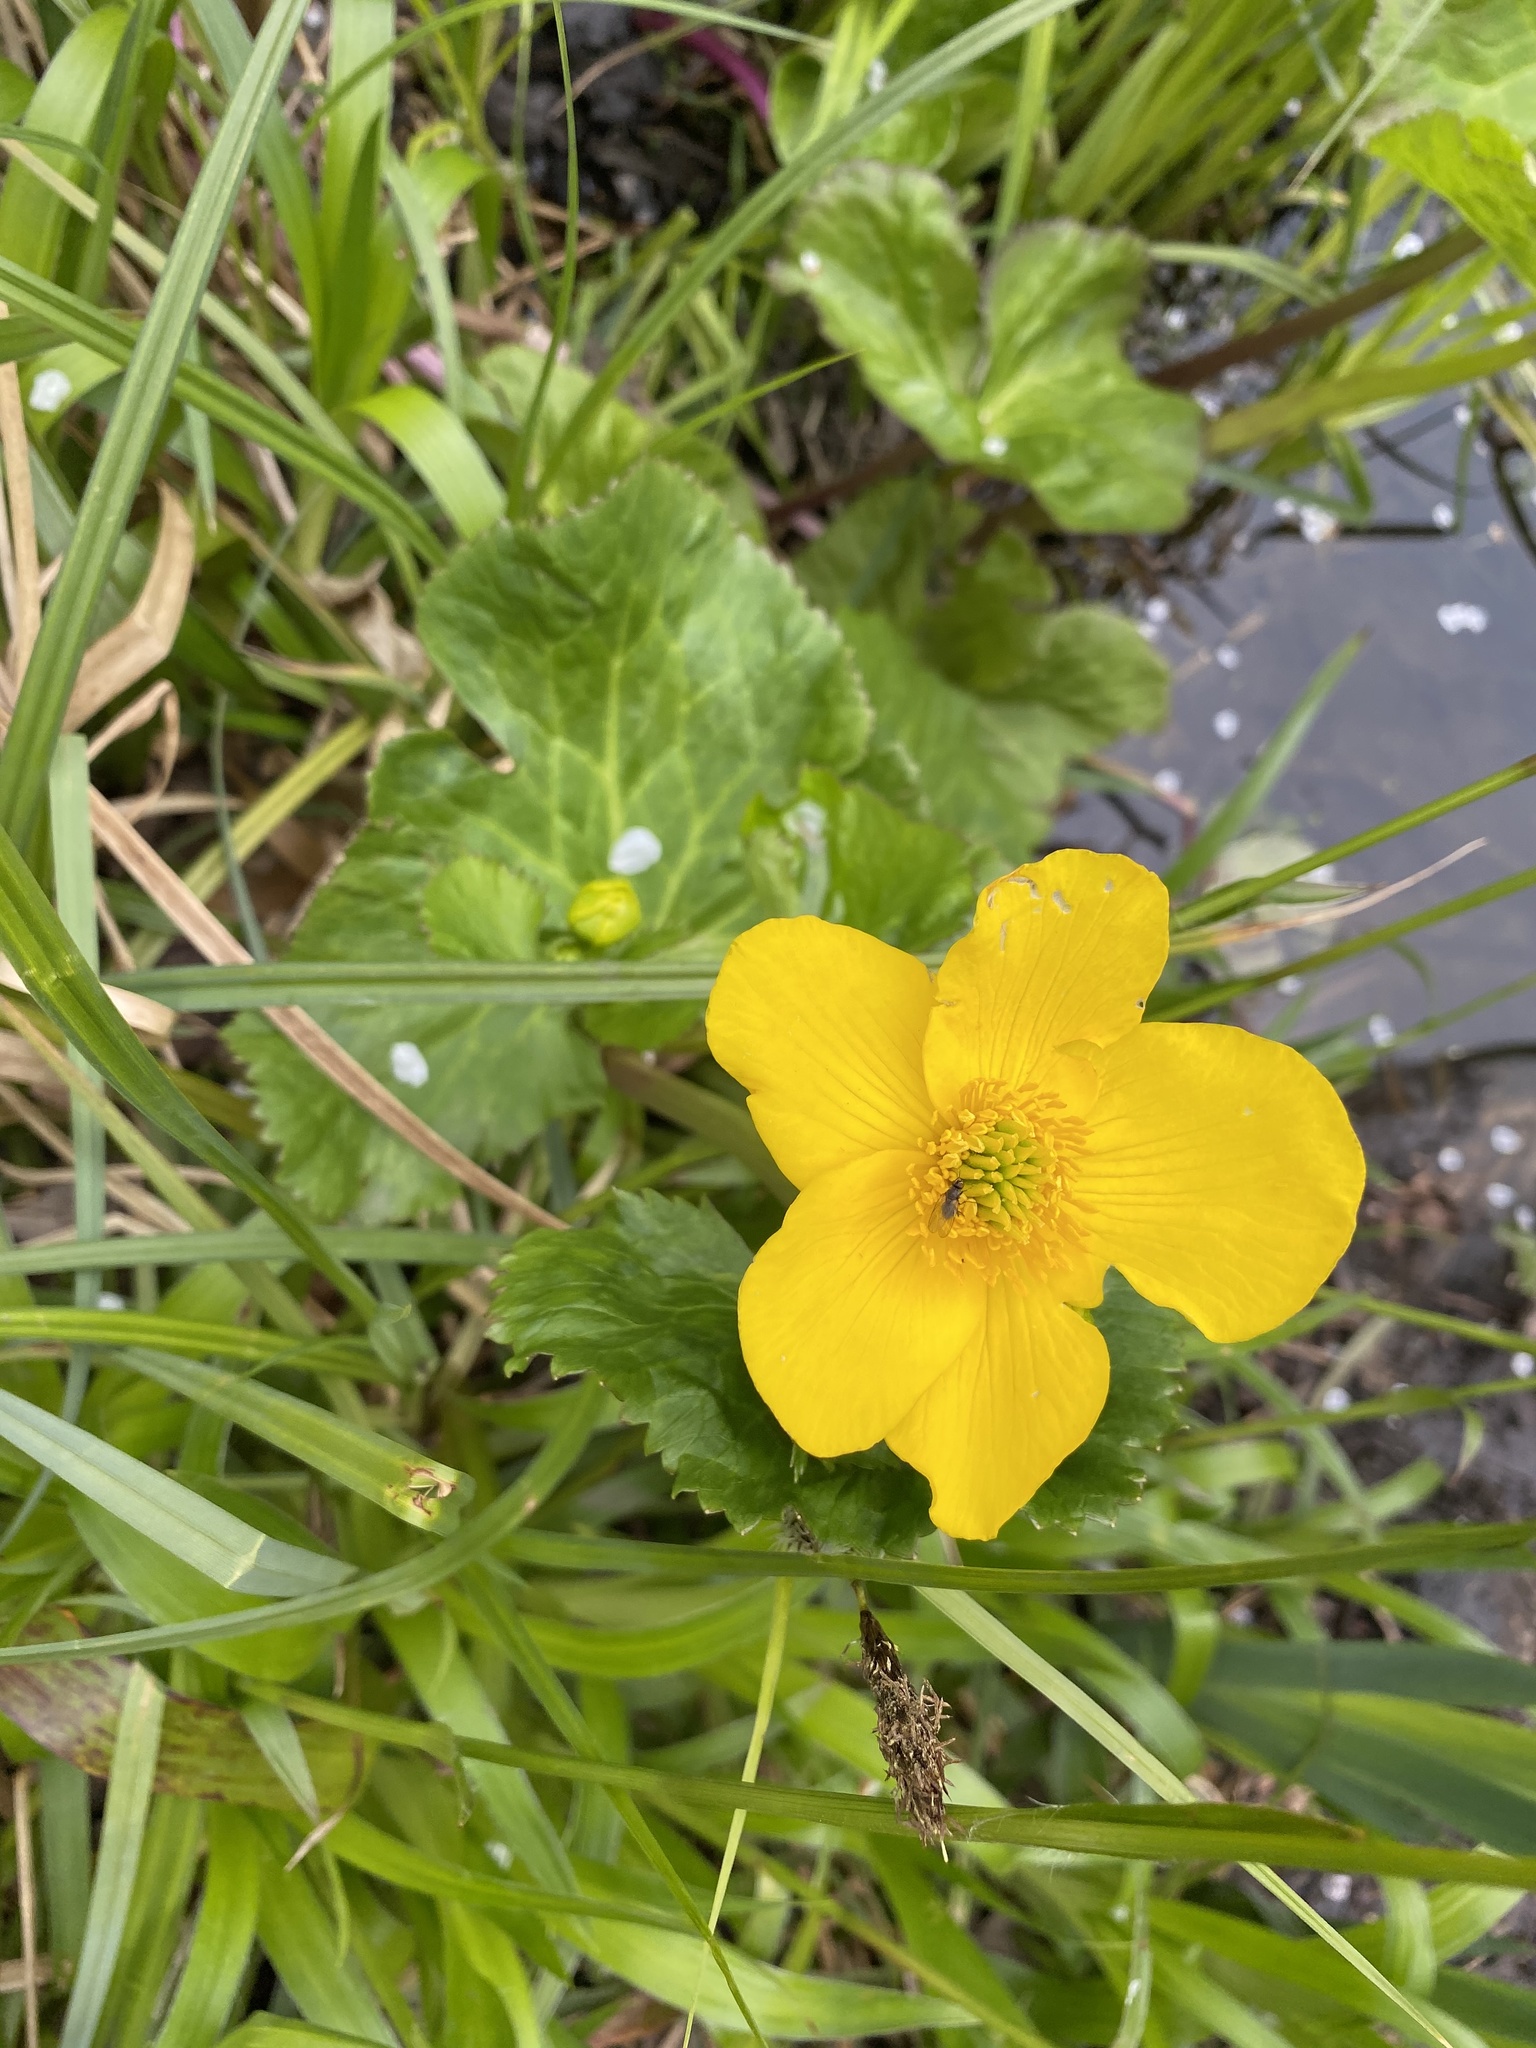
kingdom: Plantae
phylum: Tracheophyta
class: Magnoliopsida
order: Ranunculales
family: Ranunculaceae
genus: Caltha
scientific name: Caltha palustris
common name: Marsh marigold
